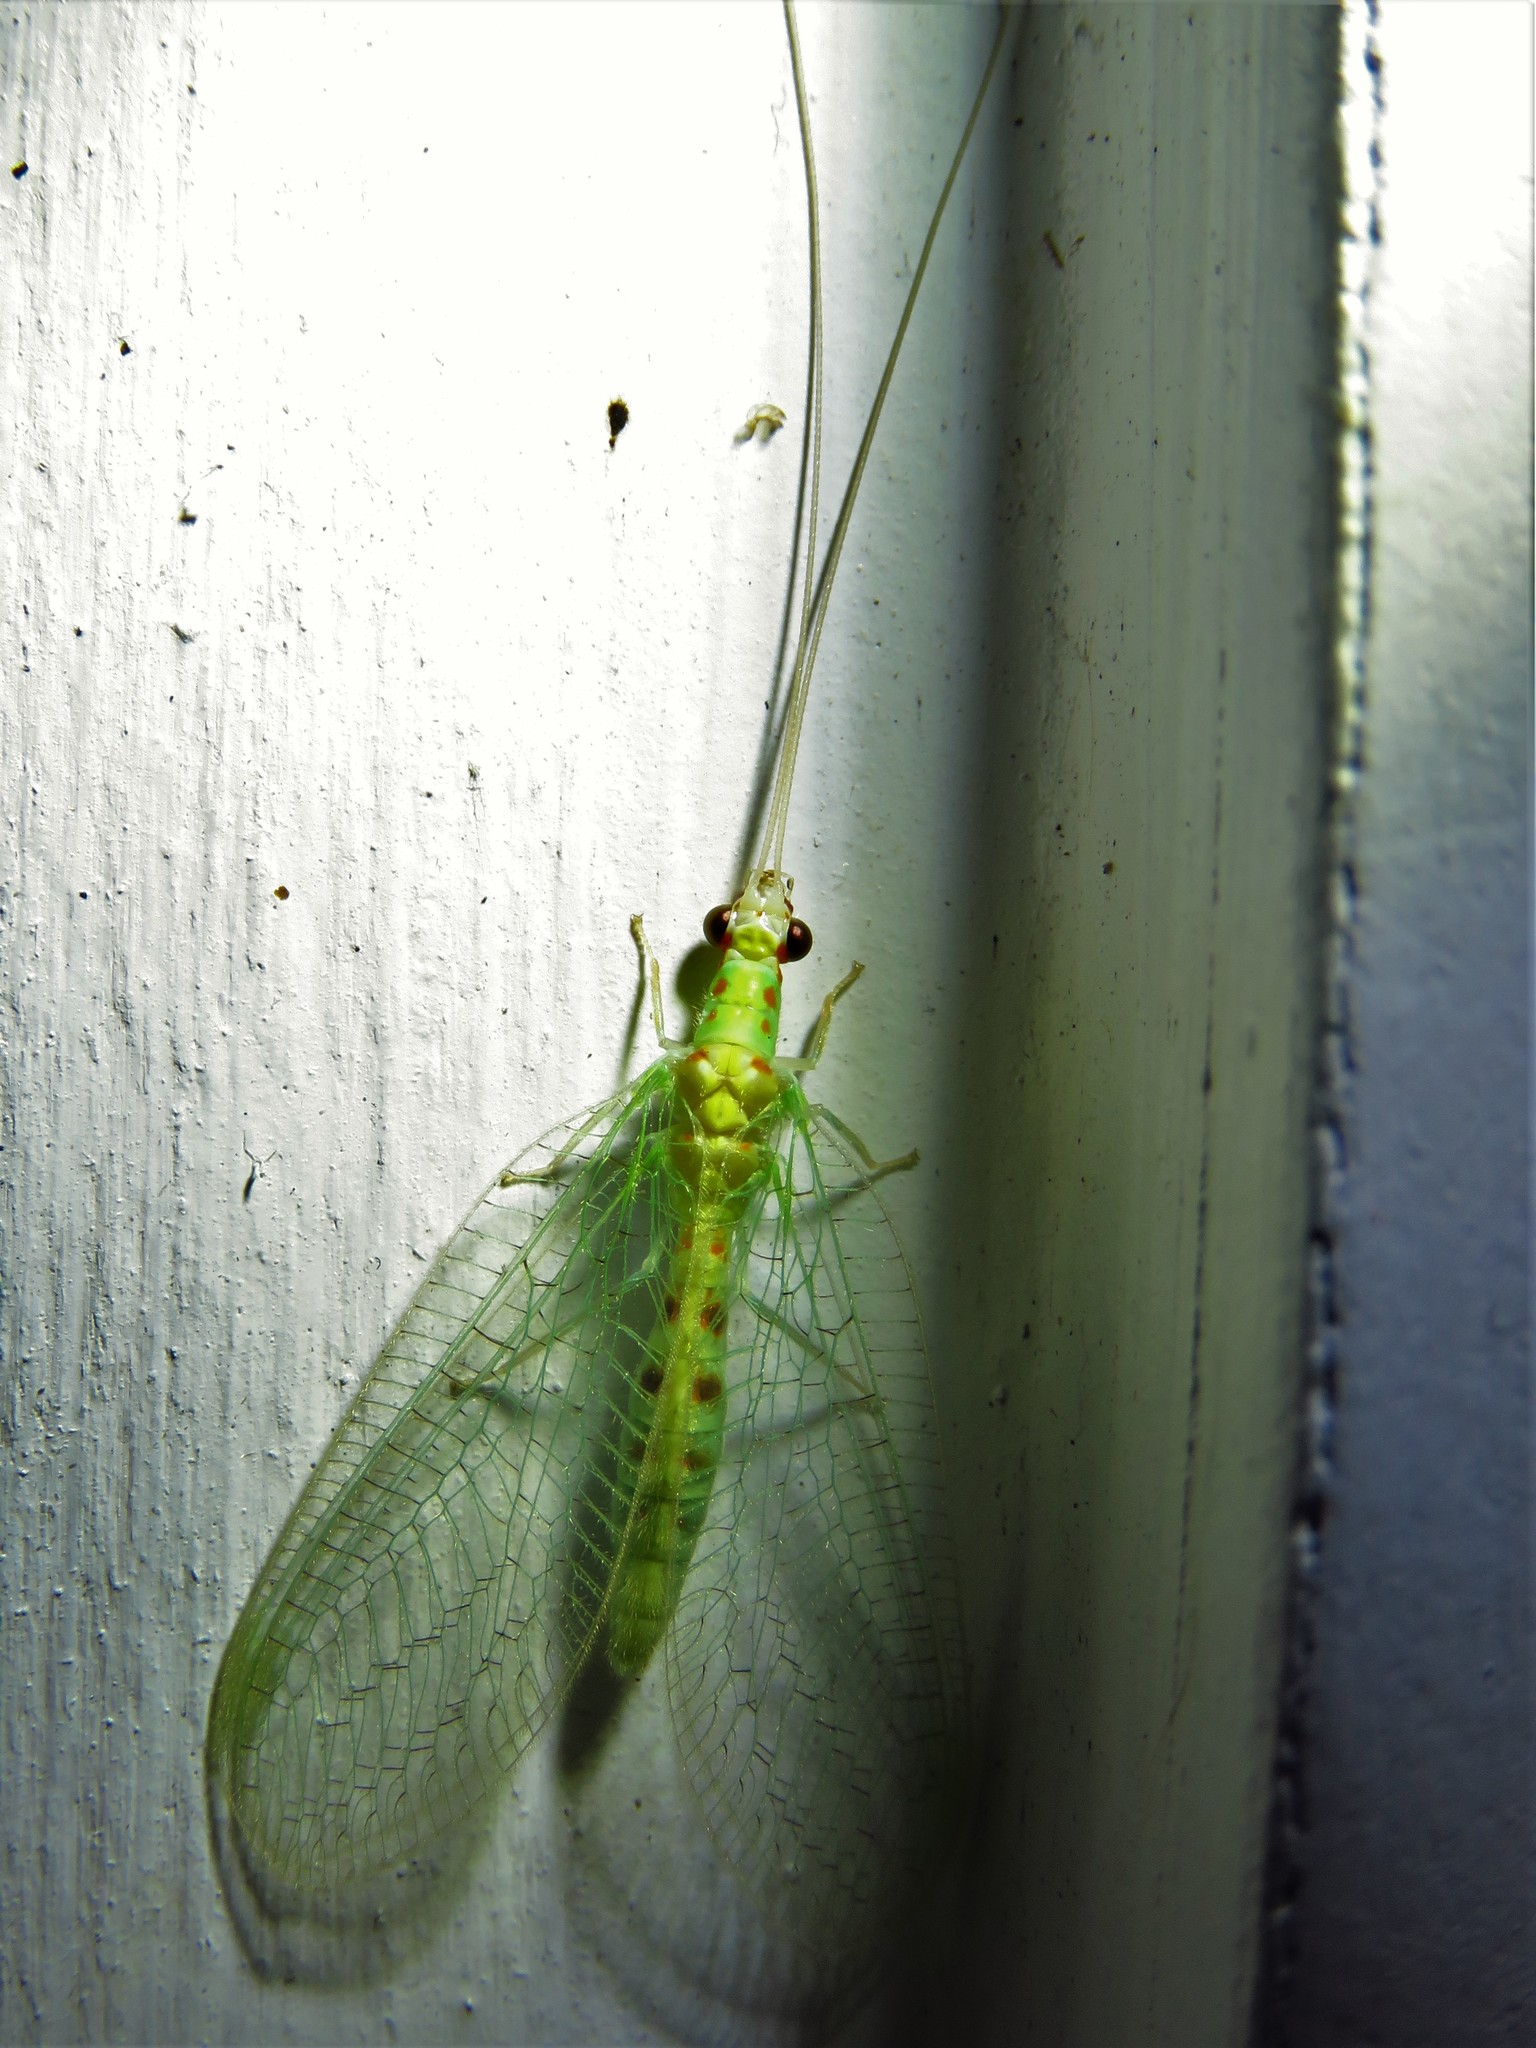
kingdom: Animalia
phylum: Arthropoda
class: Insecta
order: Neuroptera
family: Chrysopidae
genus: Chrysopa
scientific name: Chrysopa quadripunctata
